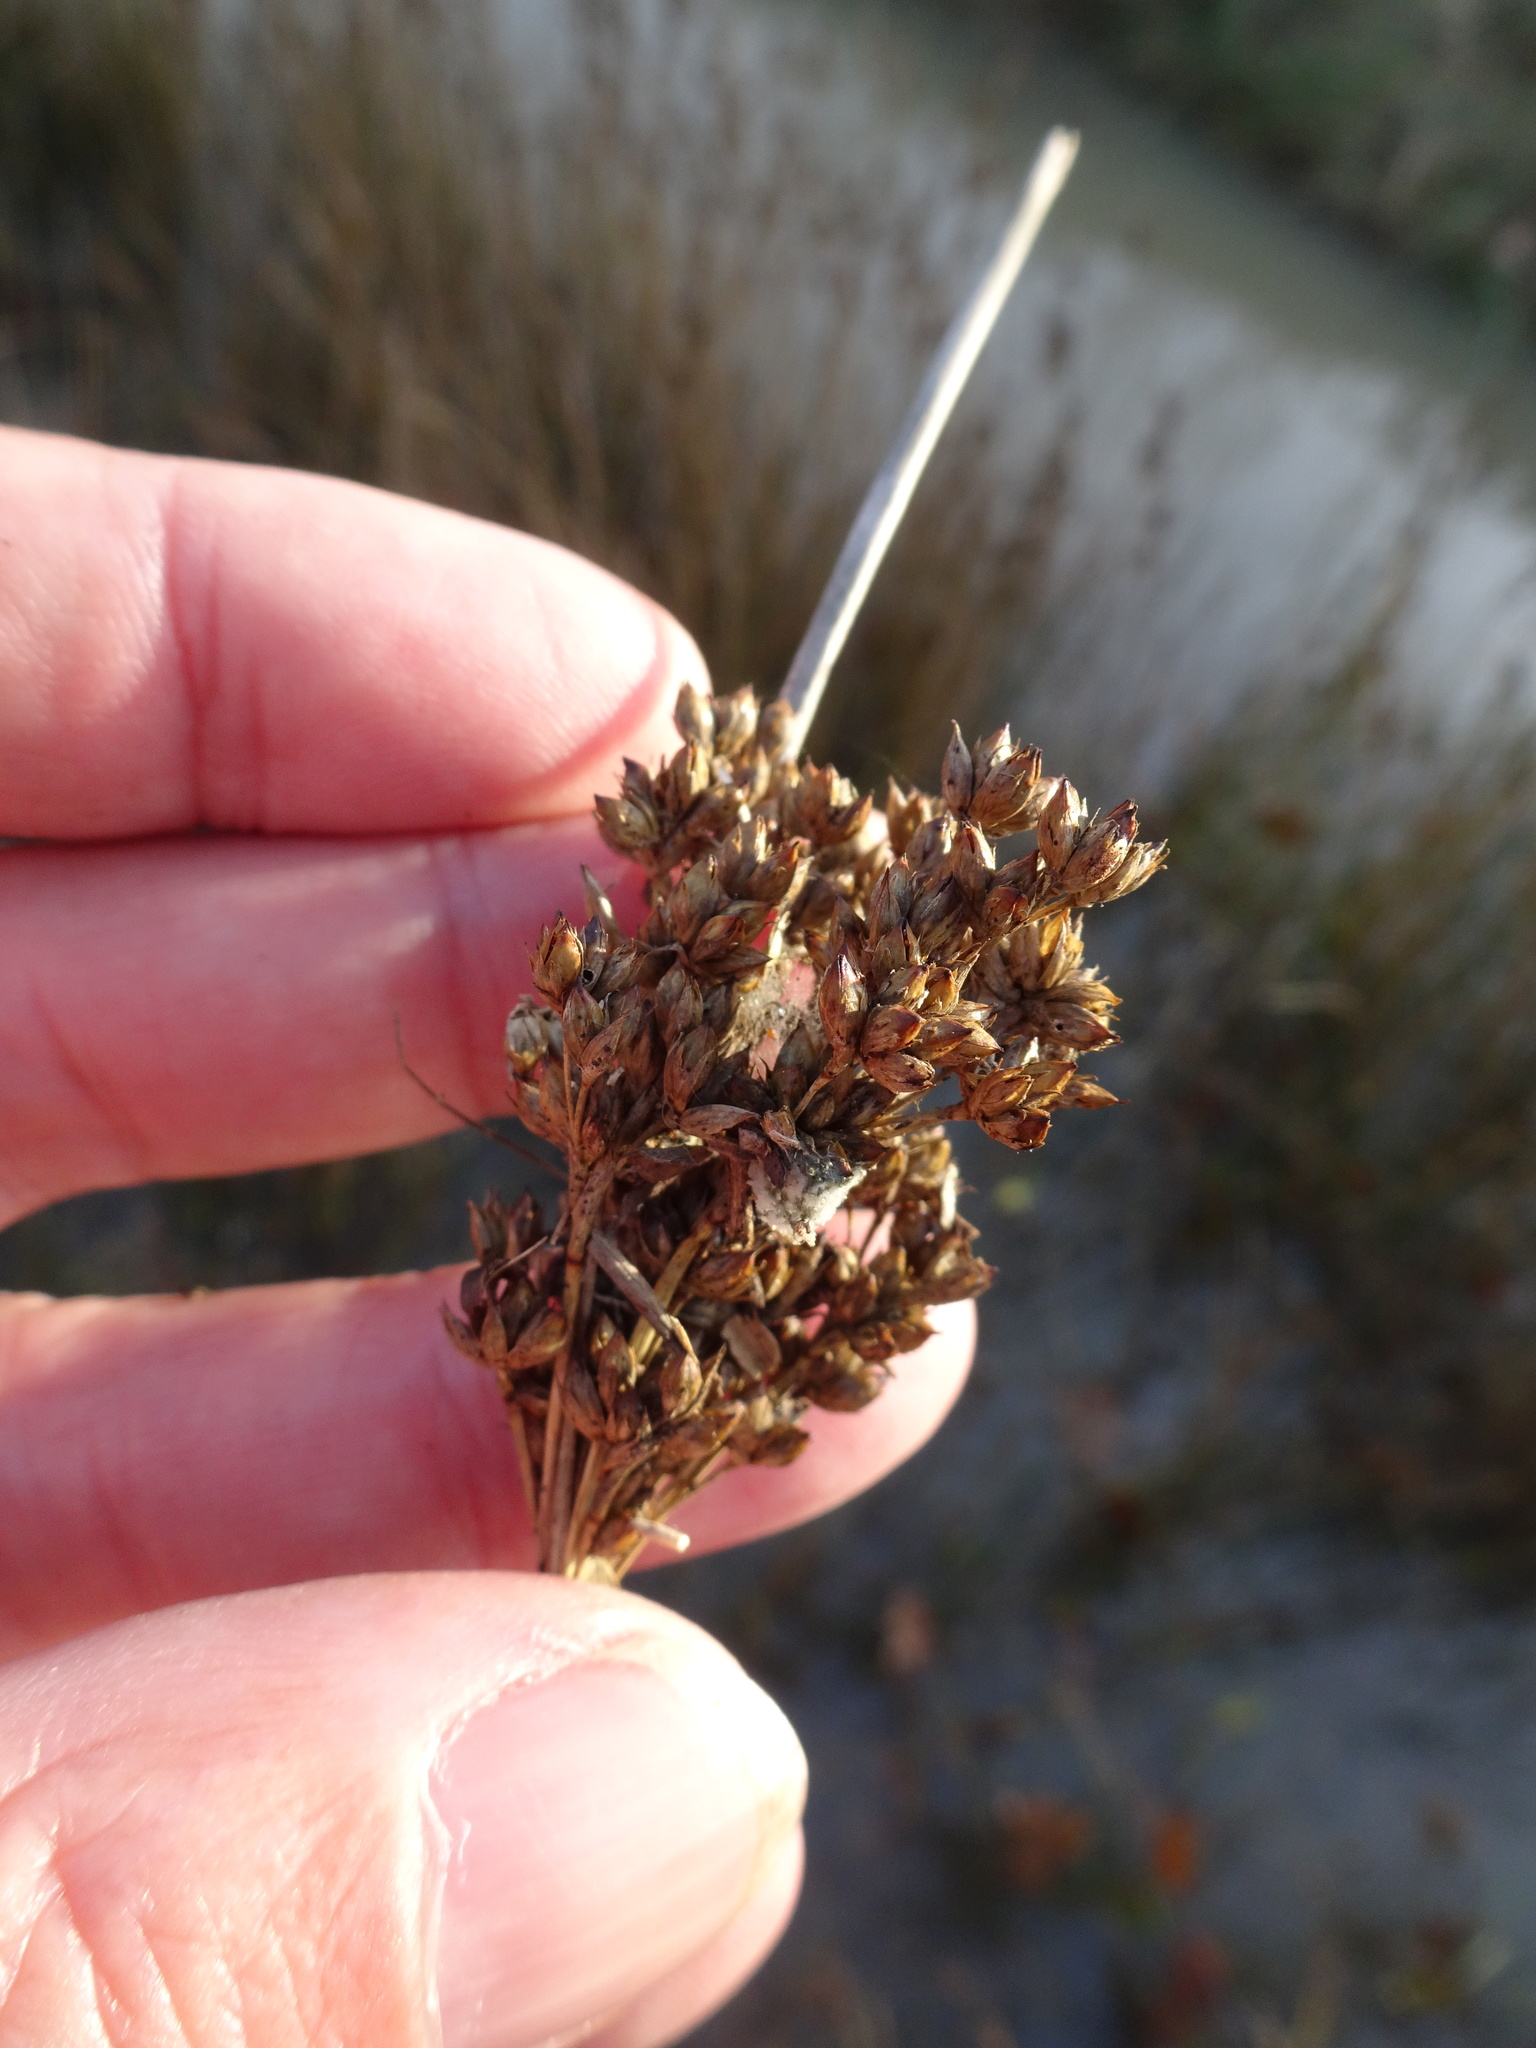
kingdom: Plantae
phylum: Tracheophyta
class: Liliopsida
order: Poales
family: Juncaceae
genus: Juncus
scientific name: Juncus maritimus
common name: Sea rush
